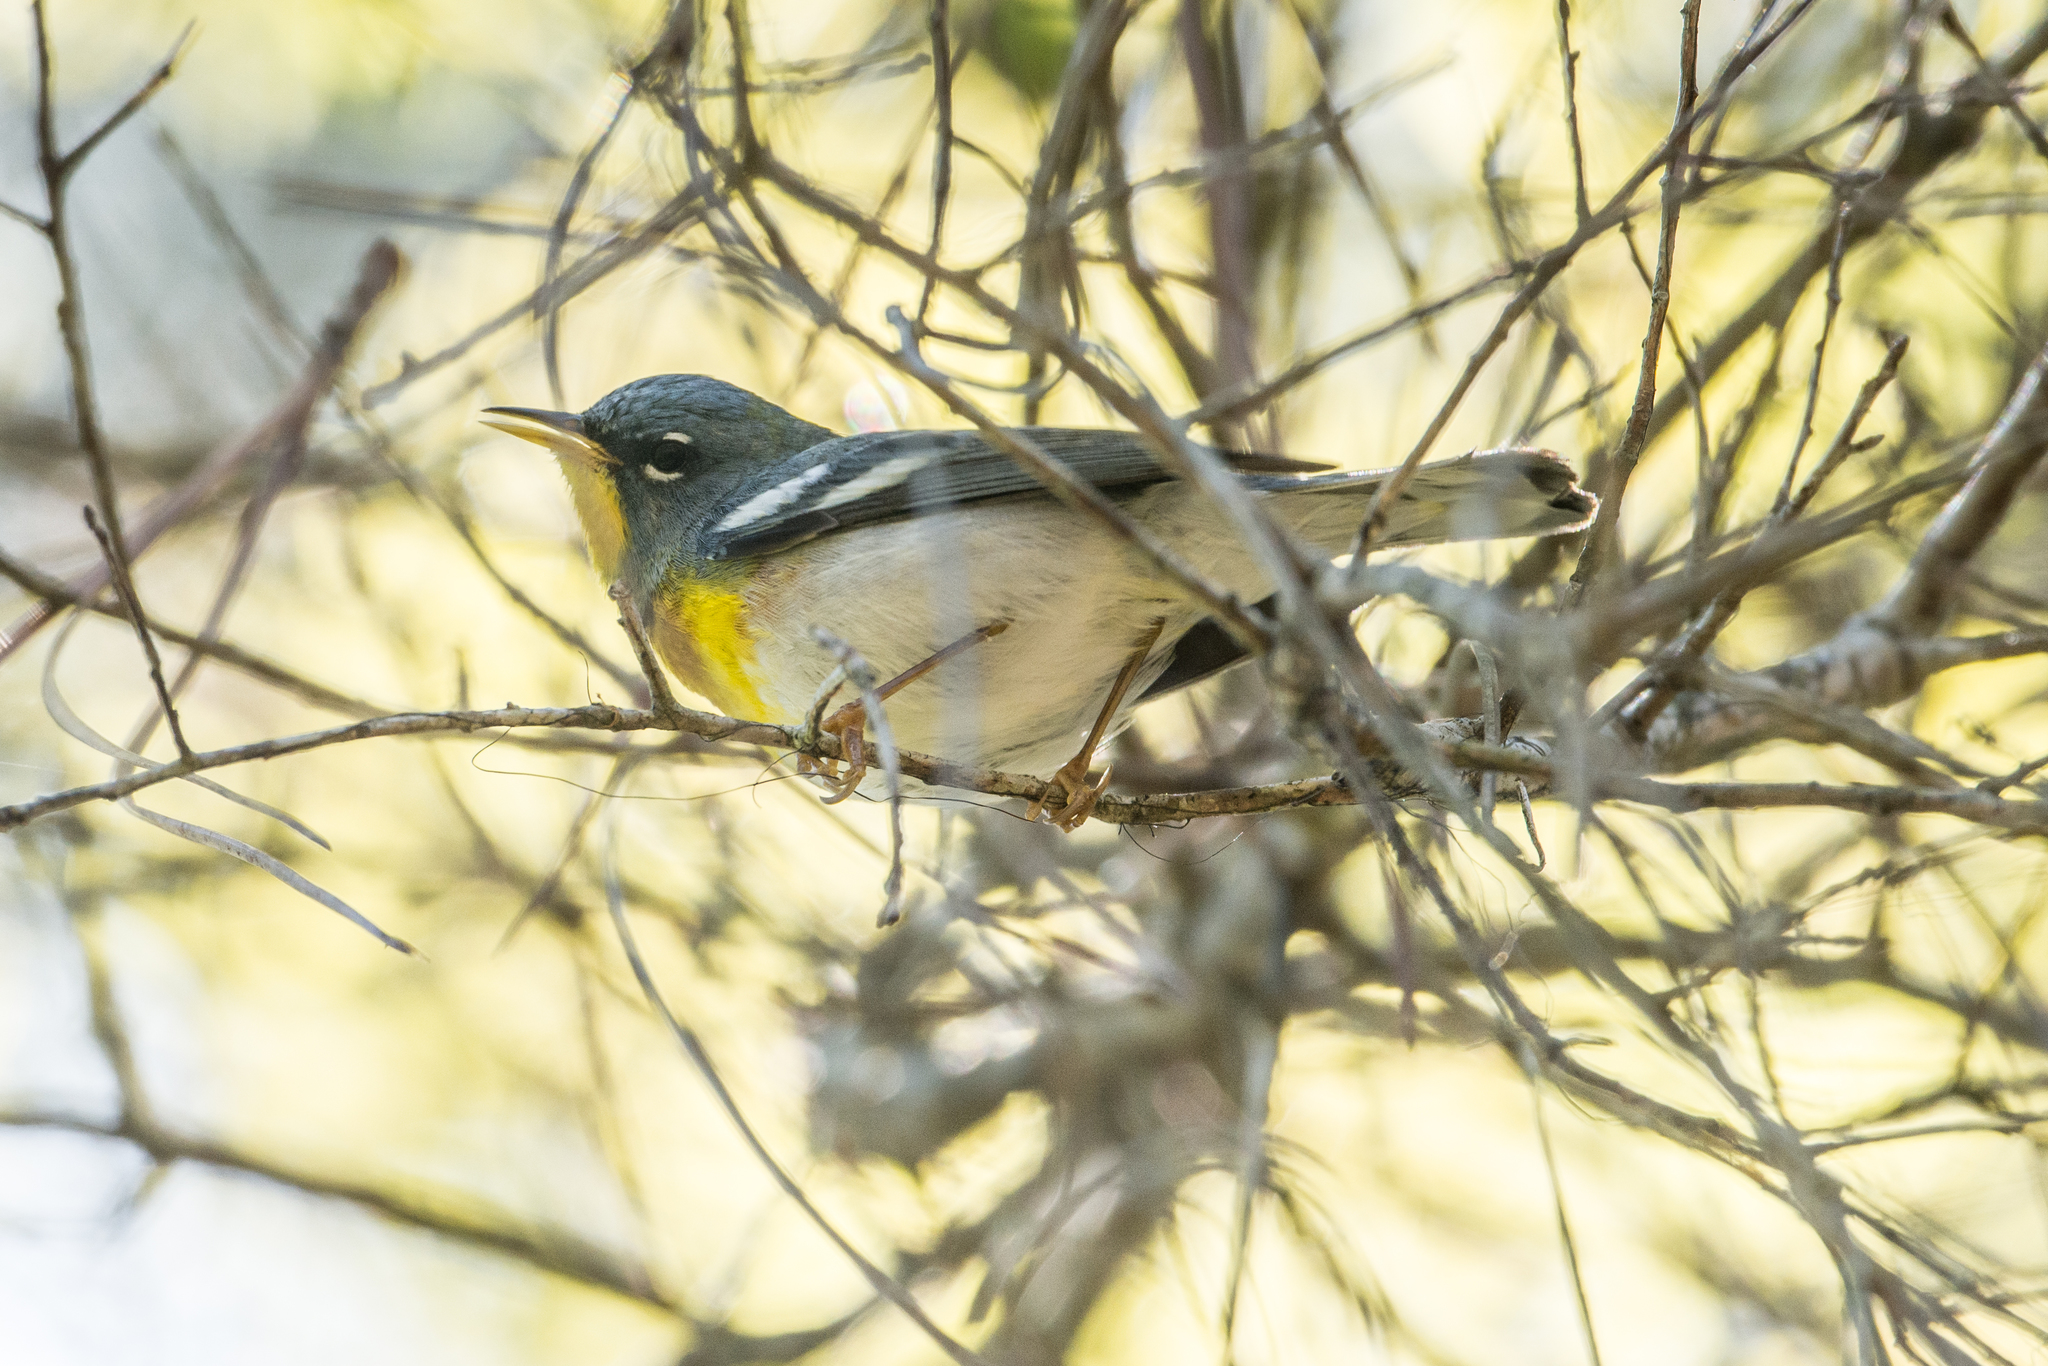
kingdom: Animalia
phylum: Chordata
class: Aves
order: Passeriformes
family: Parulidae
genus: Setophaga
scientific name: Setophaga americana
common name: Northern parula
